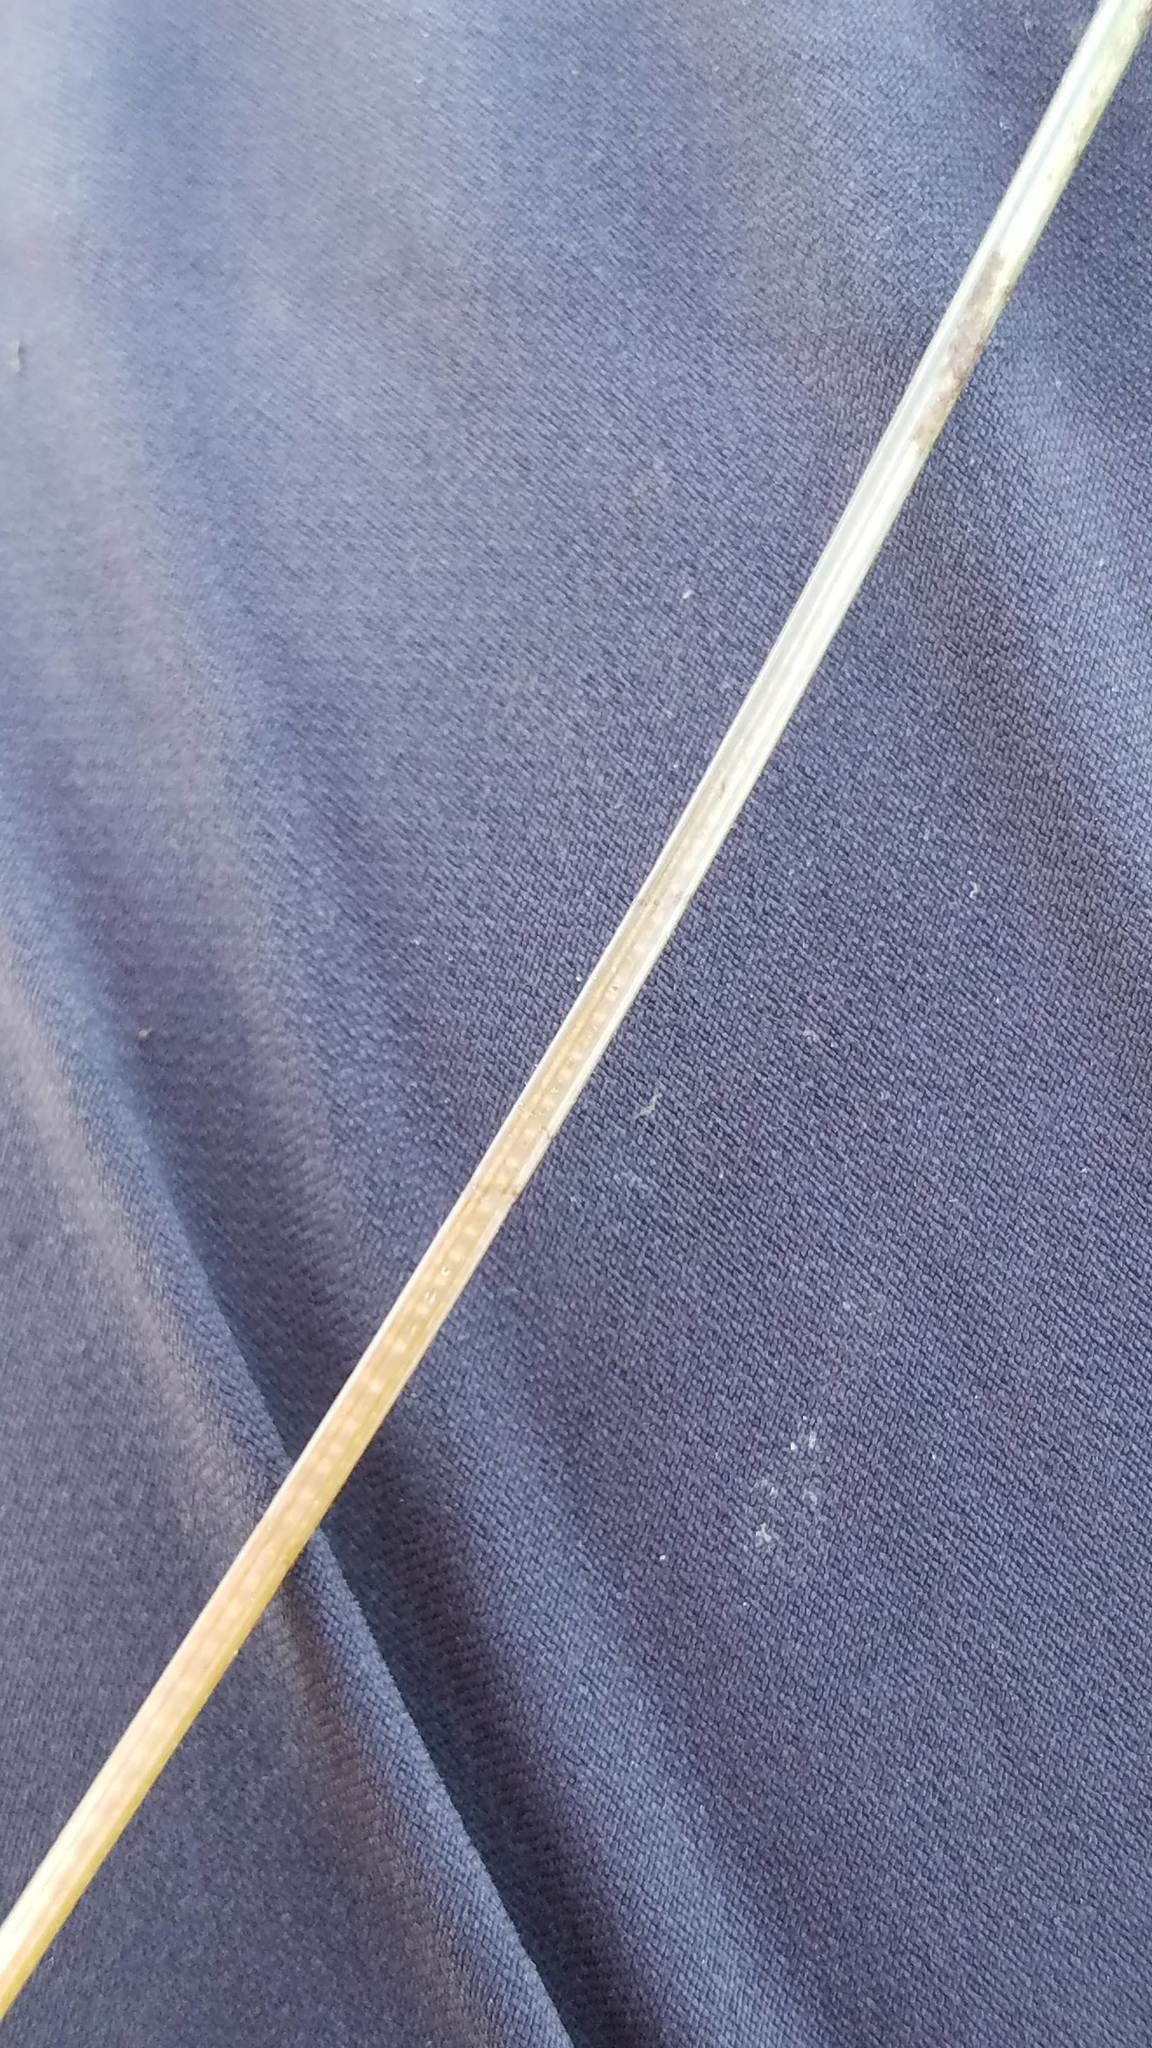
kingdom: Plantae
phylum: Tracheophyta
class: Liliopsida
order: Poales
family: Cyperaceae
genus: Eleocharis
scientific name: Eleocharis robbinsii
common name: Robbins' spikerush
